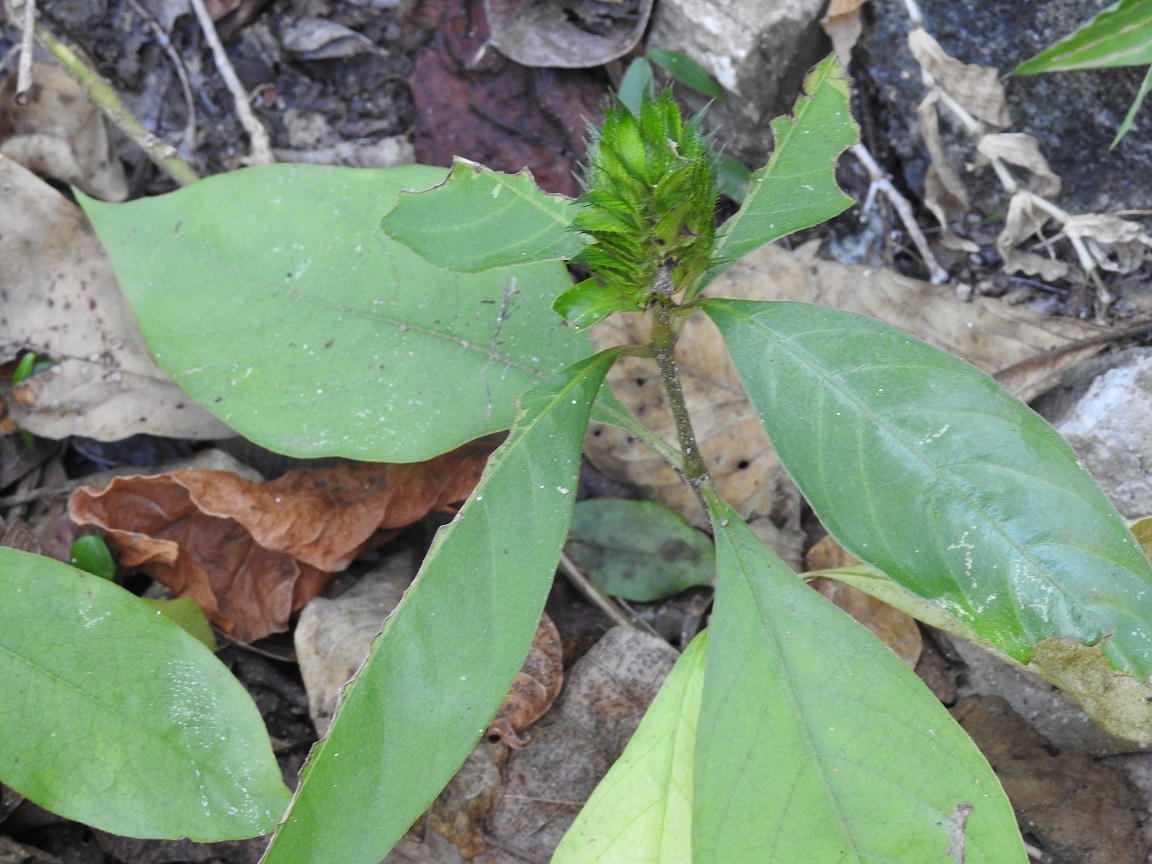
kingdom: Plantae
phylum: Tracheophyta
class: Magnoliopsida
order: Lamiales
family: Acanthaceae
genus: Barleria
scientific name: Barleria oenotheroides
